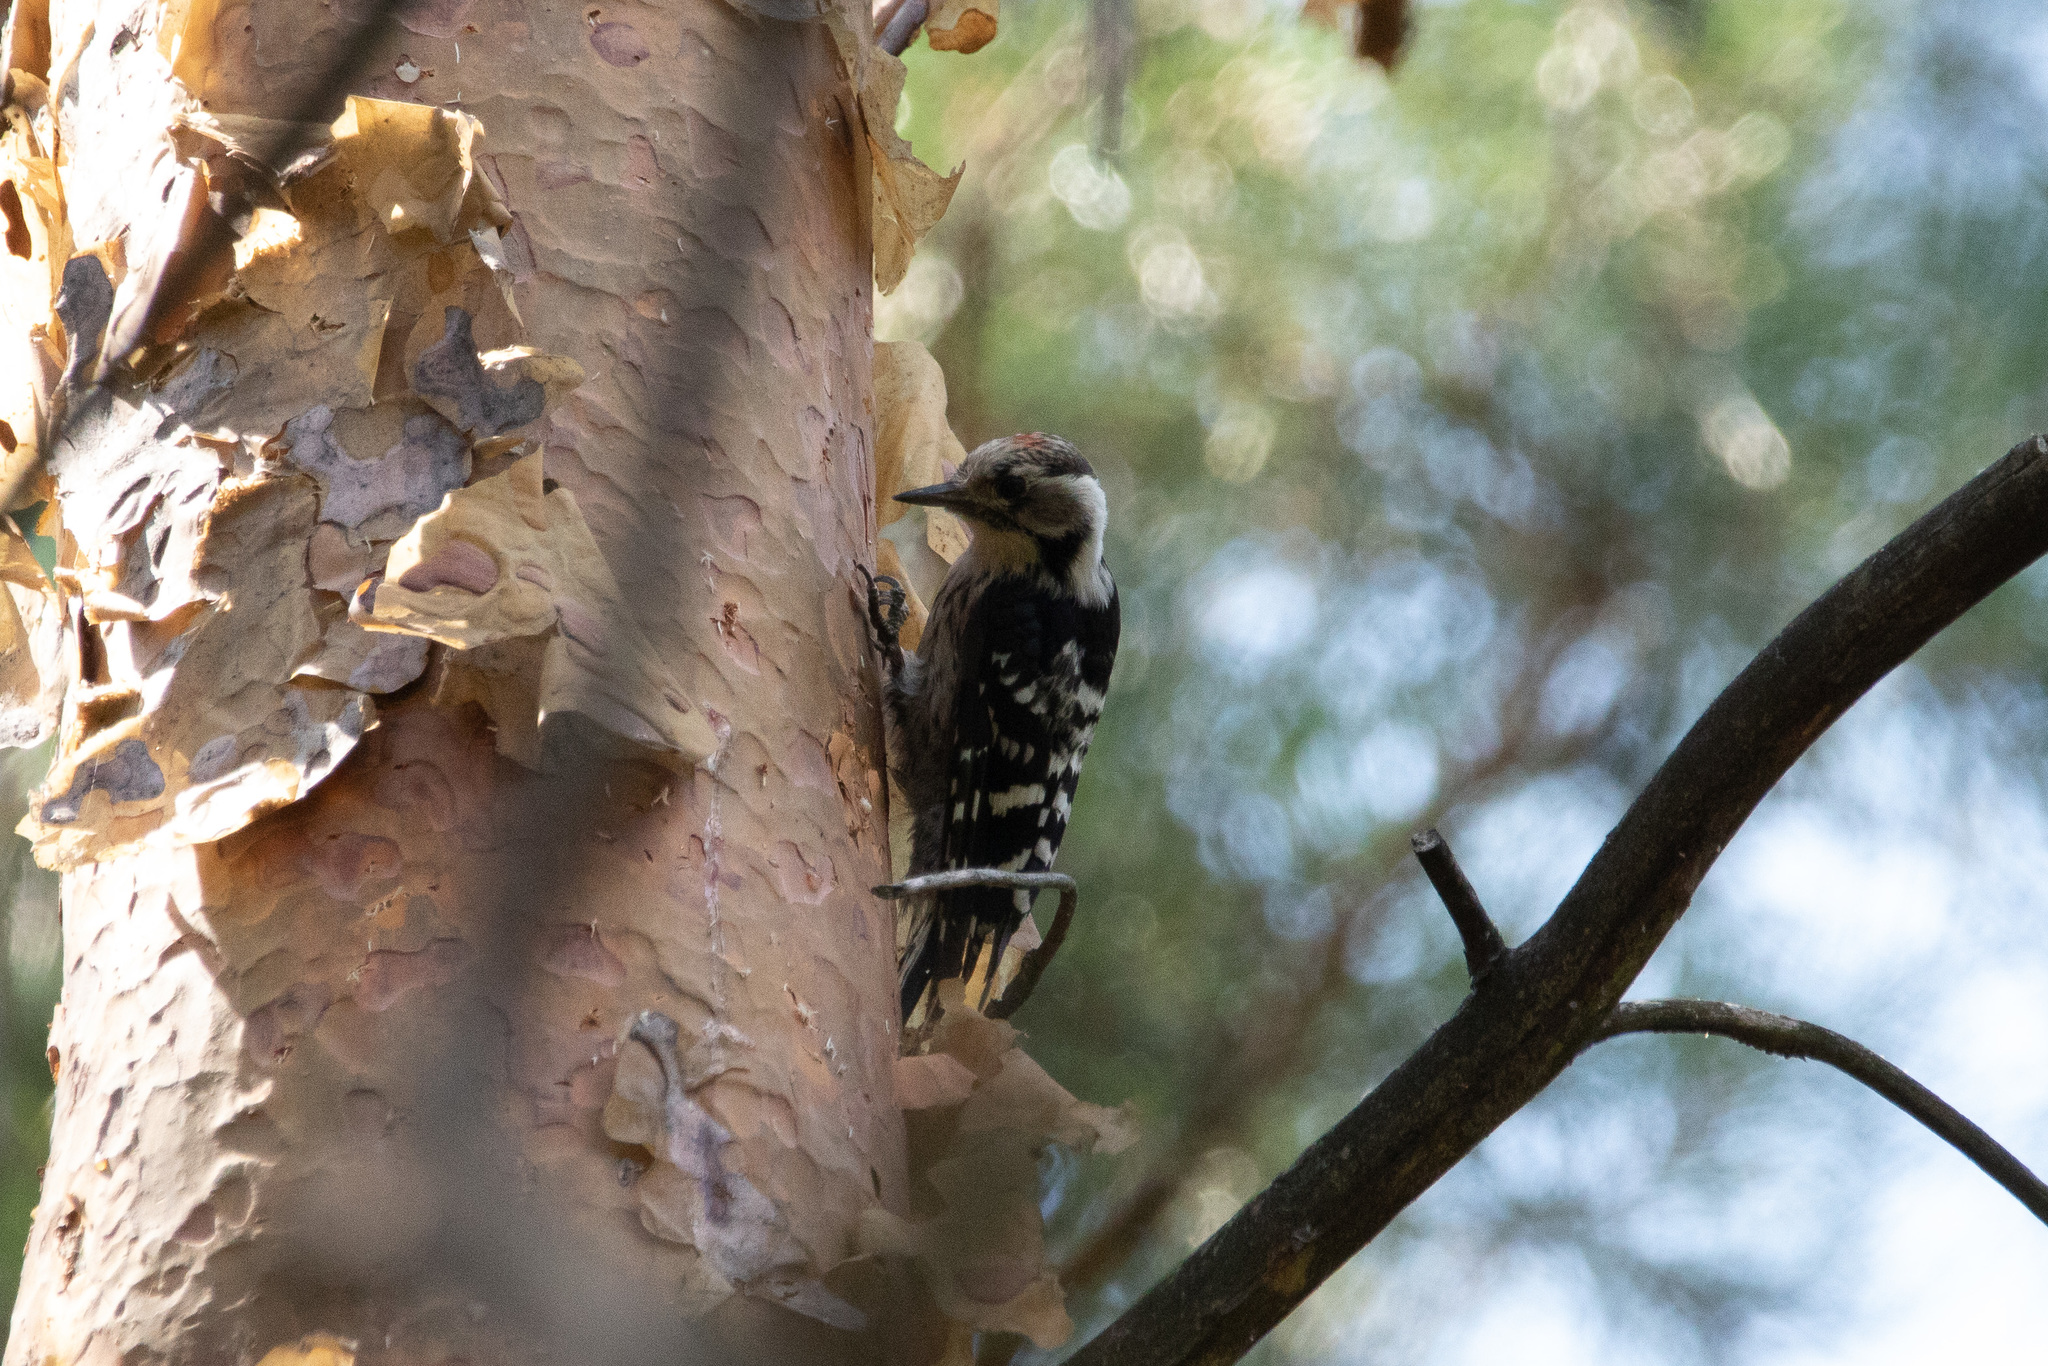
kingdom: Animalia
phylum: Chordata
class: Aves
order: Piciformes
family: Picidae
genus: Dryobates
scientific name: Dryobates minor
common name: Lesser spotted woodpecker
